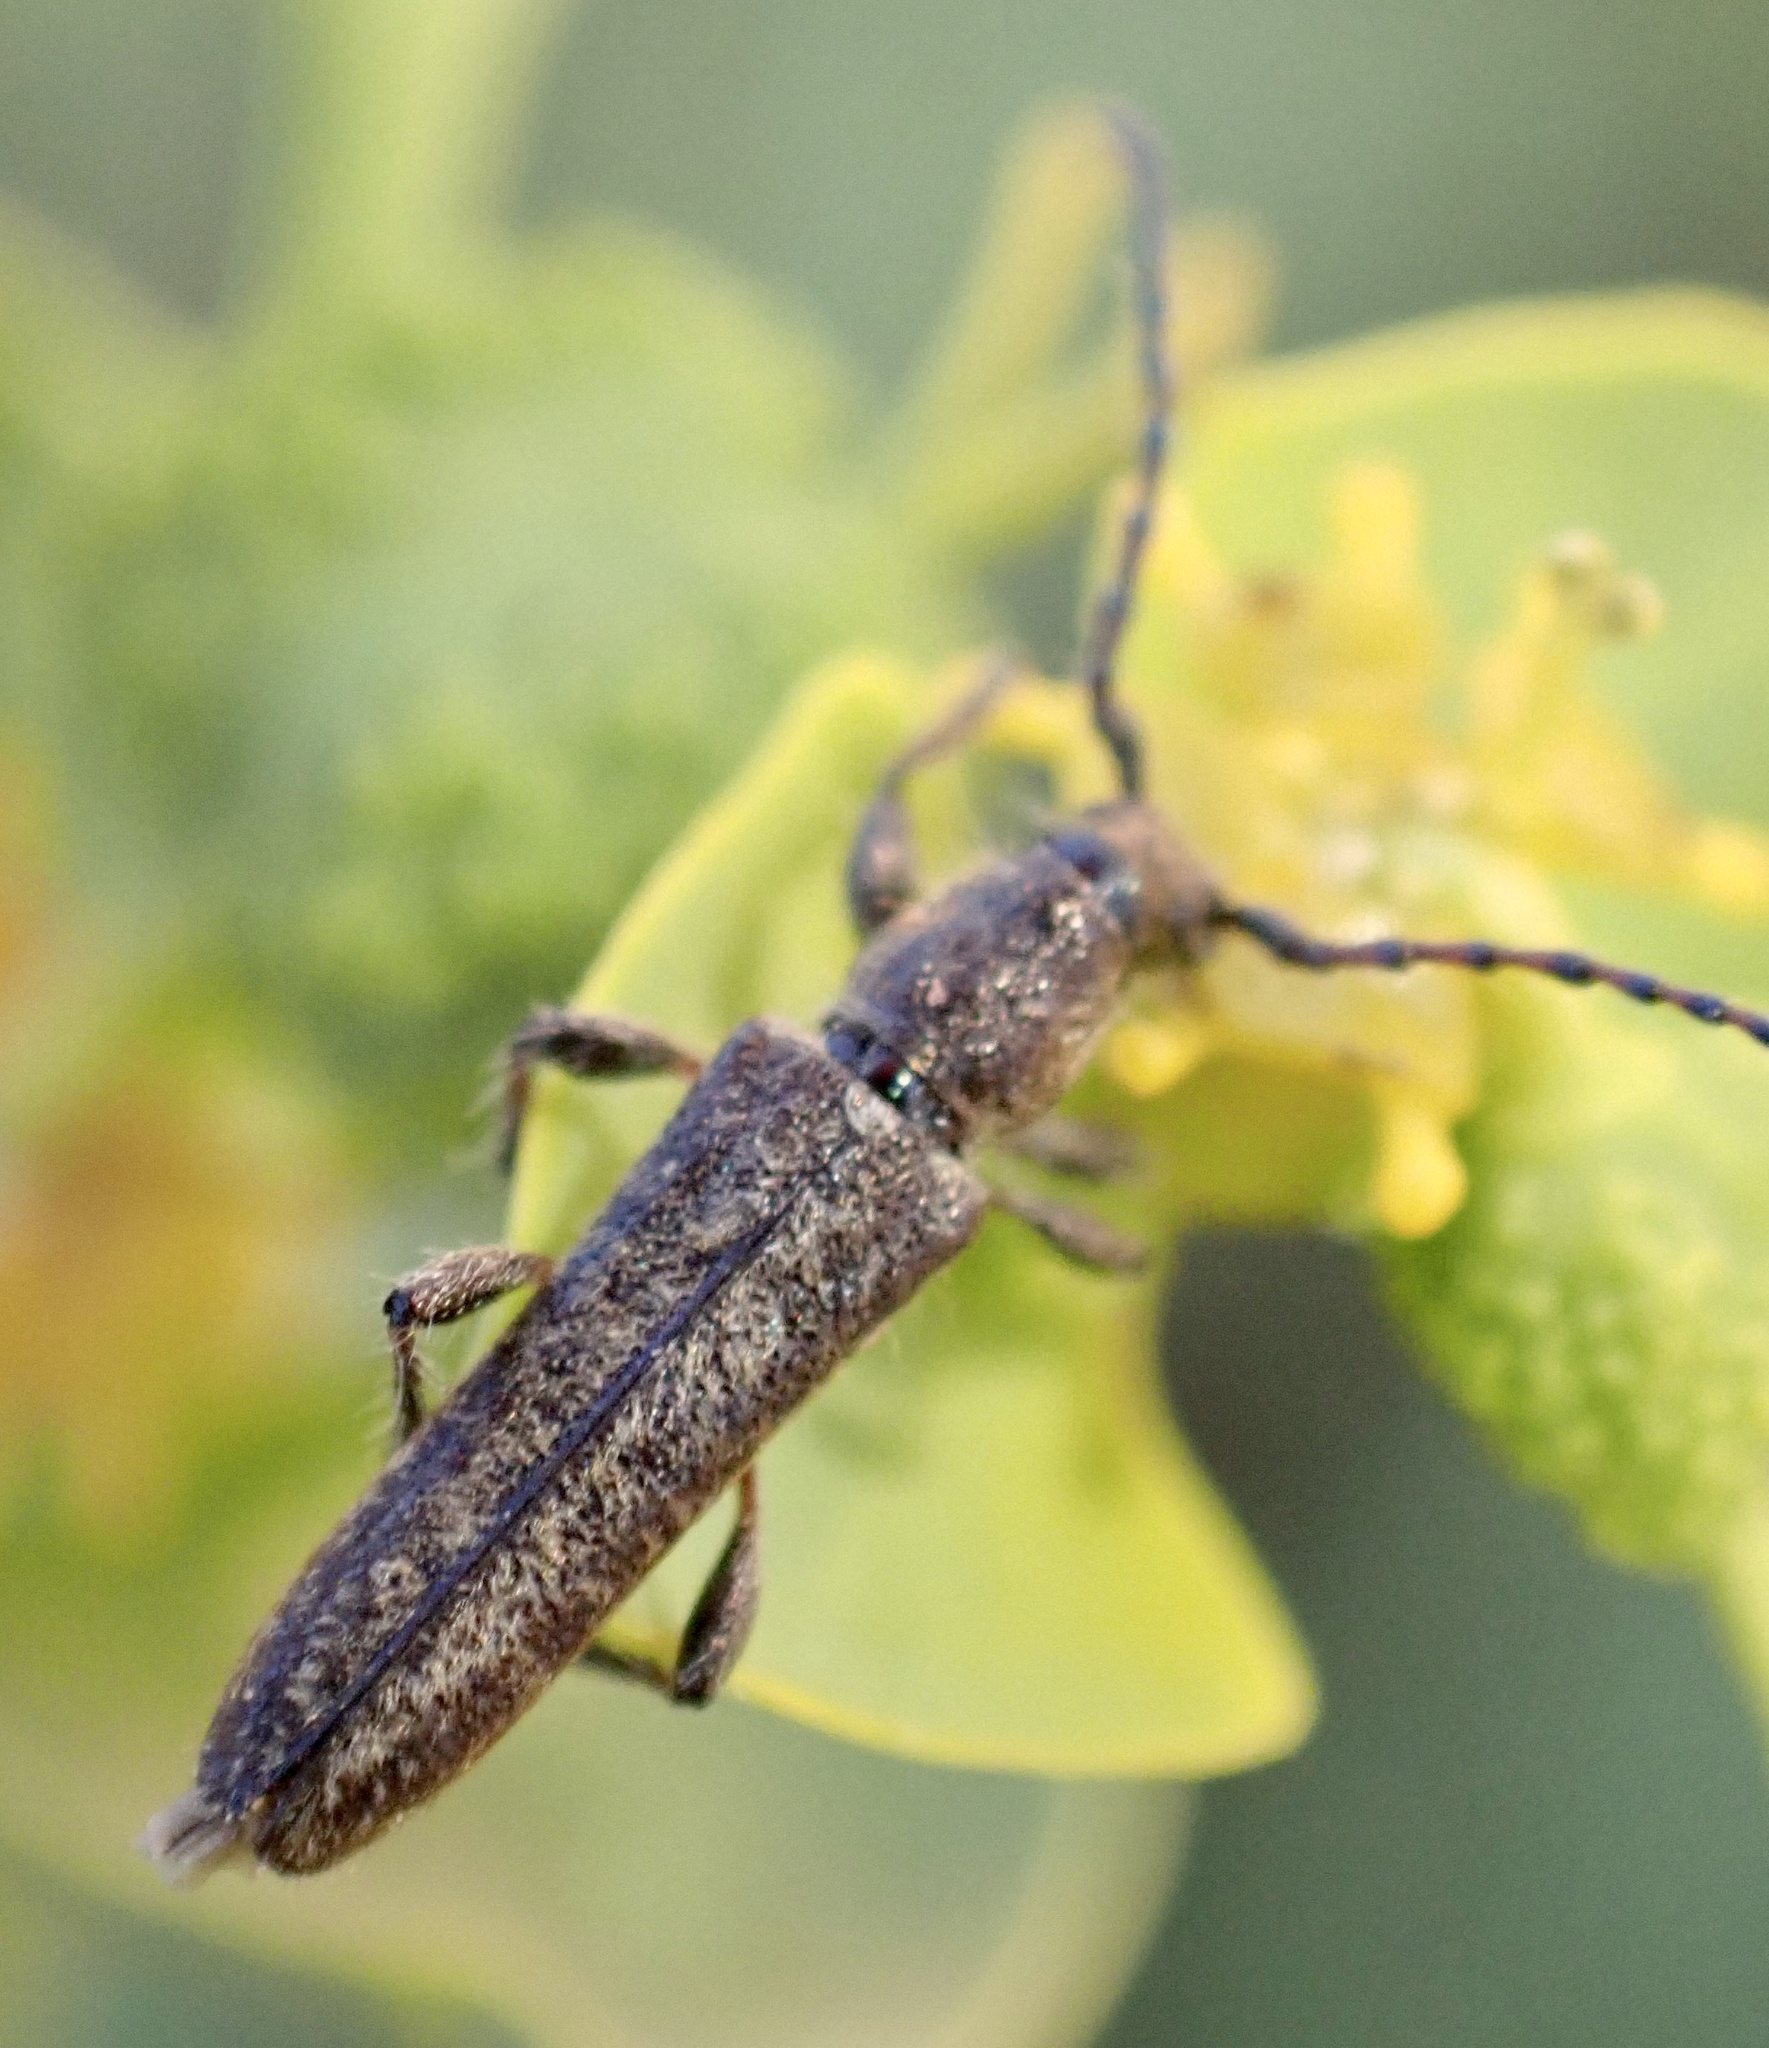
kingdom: Animalia
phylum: Arthropoda
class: Insecta
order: Coleoptera
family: Cerambycidae
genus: Deilus
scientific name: Deilus fugax
